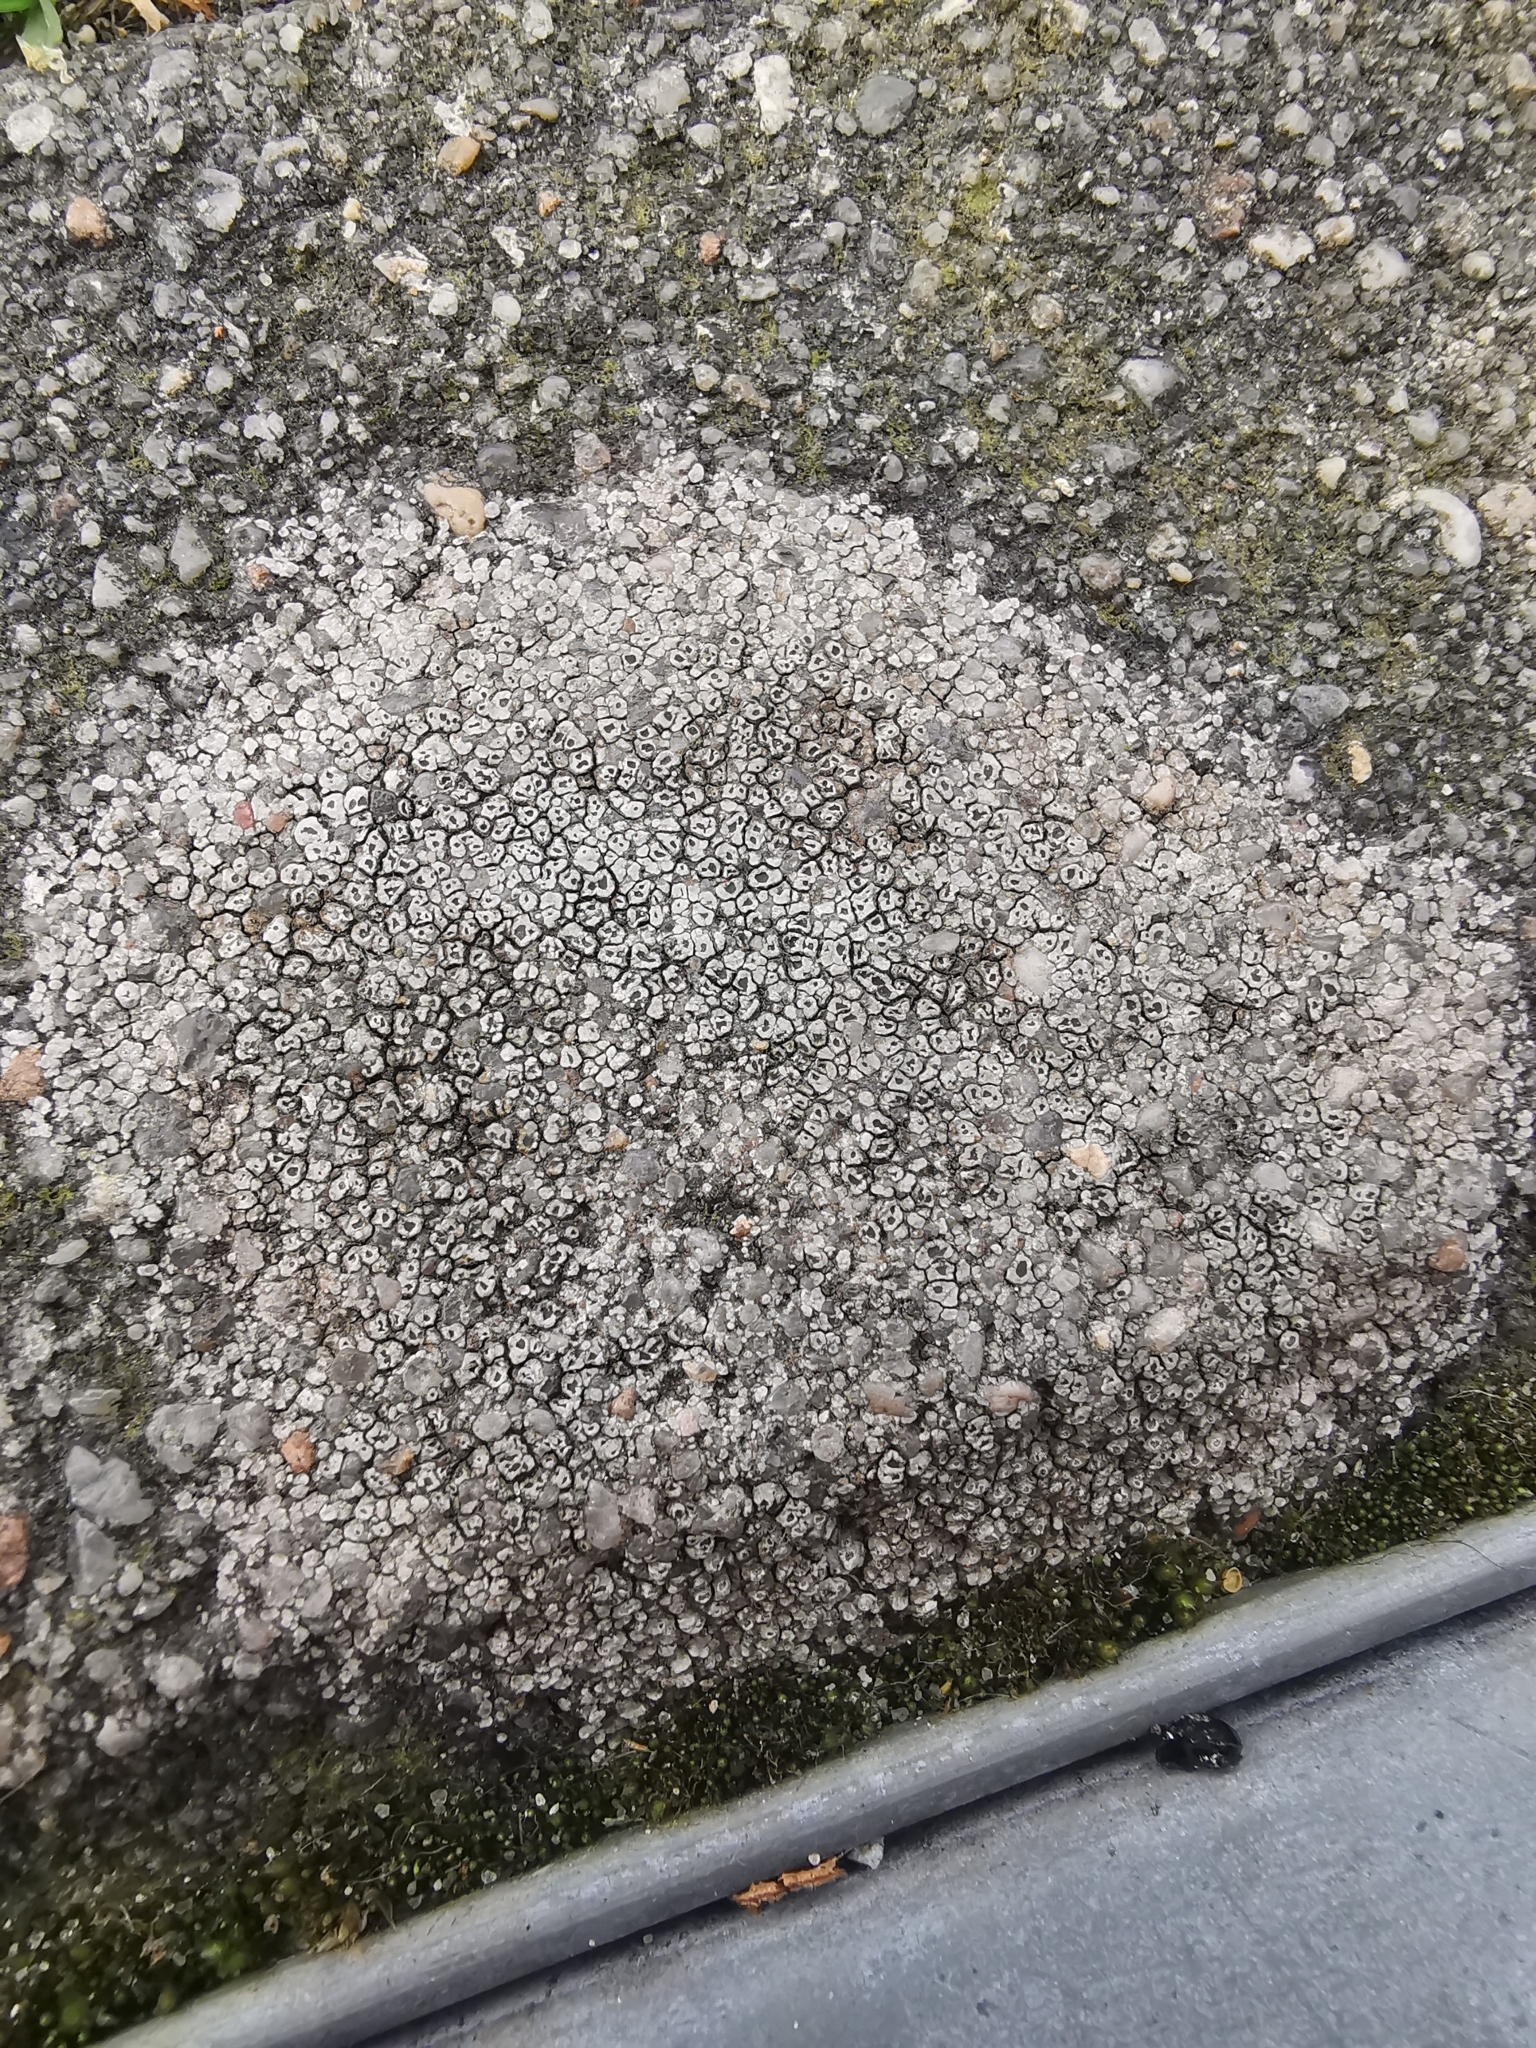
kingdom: Fungi
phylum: Ascomycota
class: Lecanoromycetes
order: Pertusariales
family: Megasporaceae
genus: Circinaria
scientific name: Circinaria contorta
